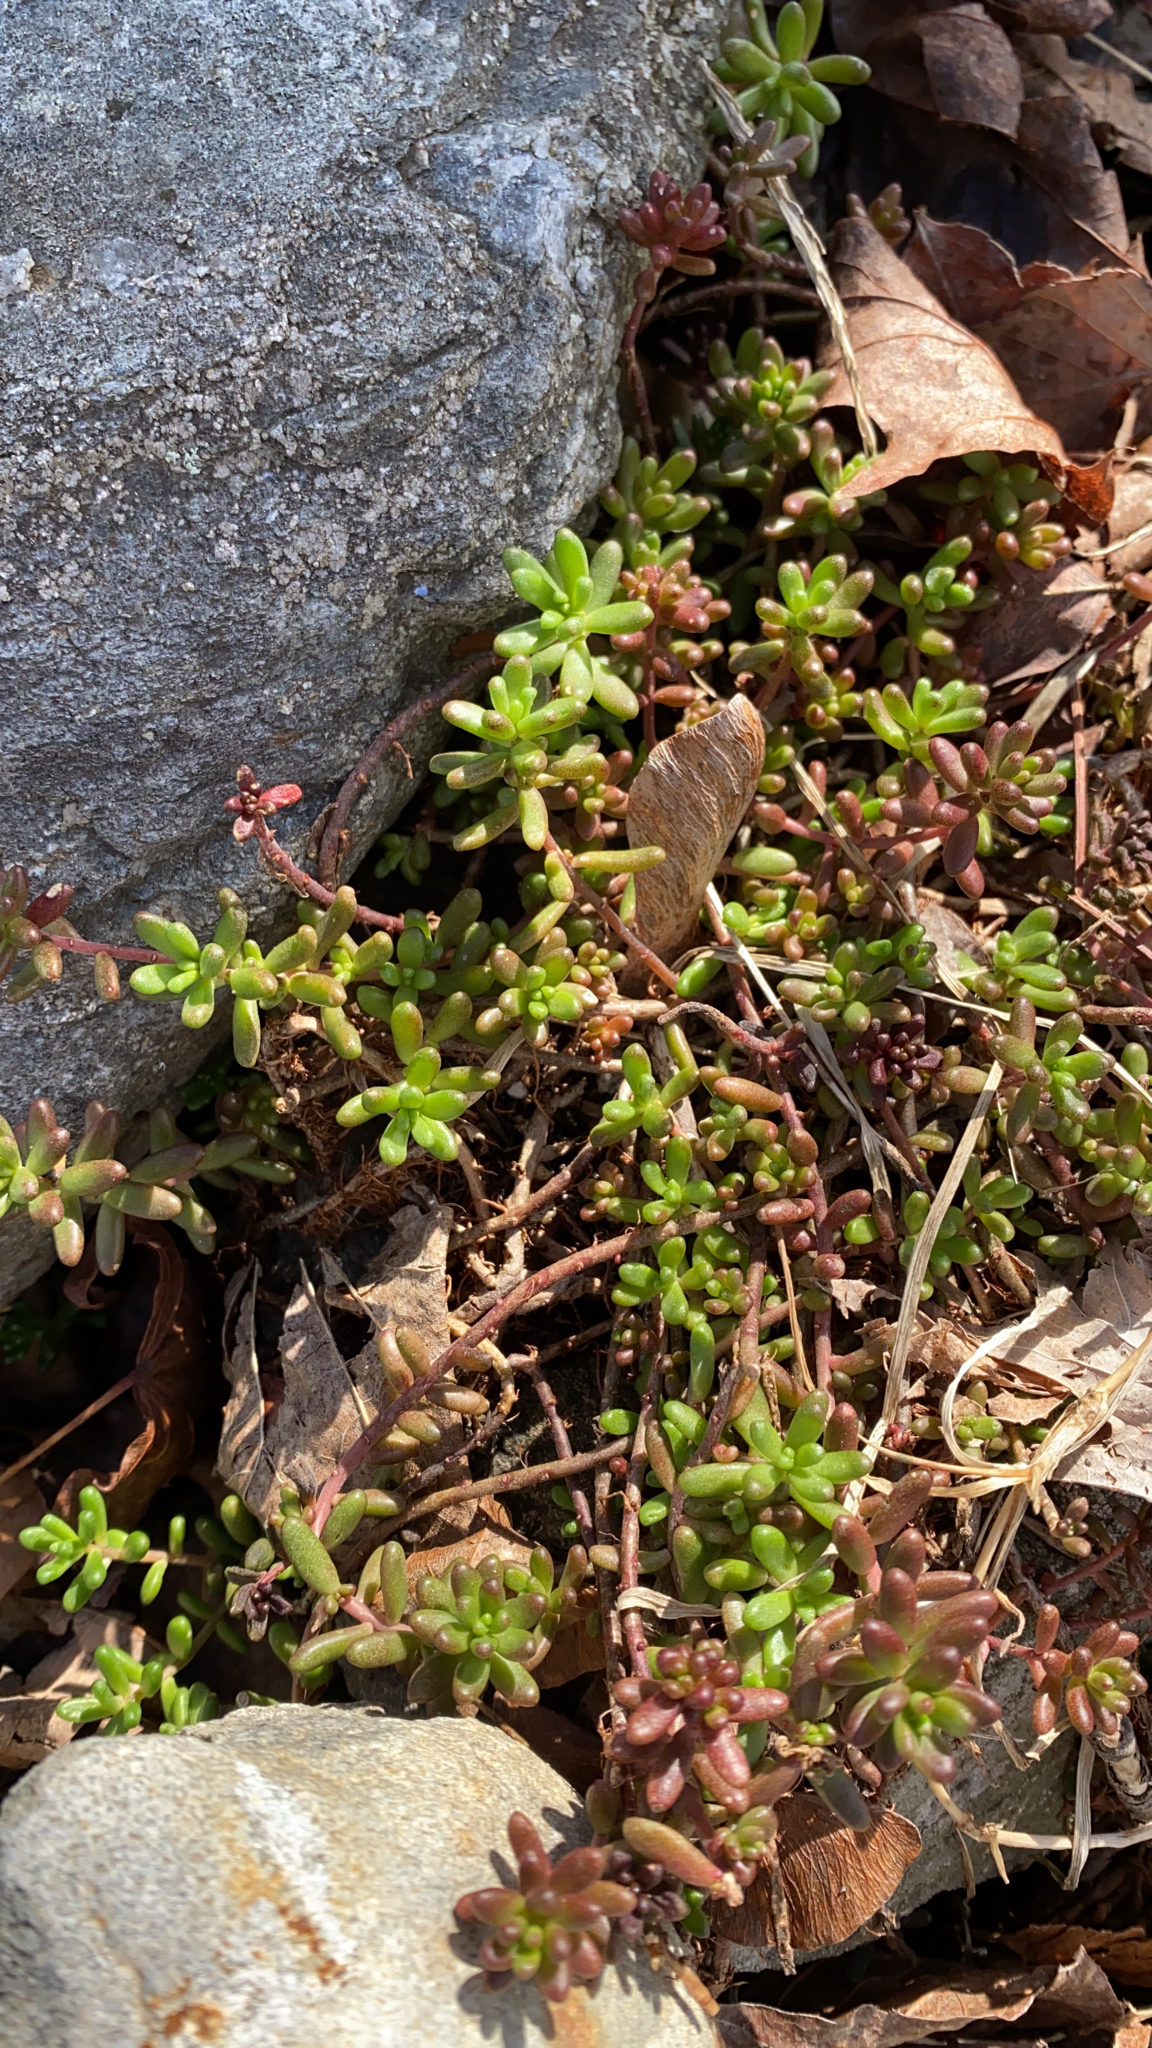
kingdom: Plantae
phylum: Tracheophyta
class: Magnoliopsida
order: Saxifragales
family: Crassulaceae
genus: Sedum
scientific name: Sedum album
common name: White stonecrop
